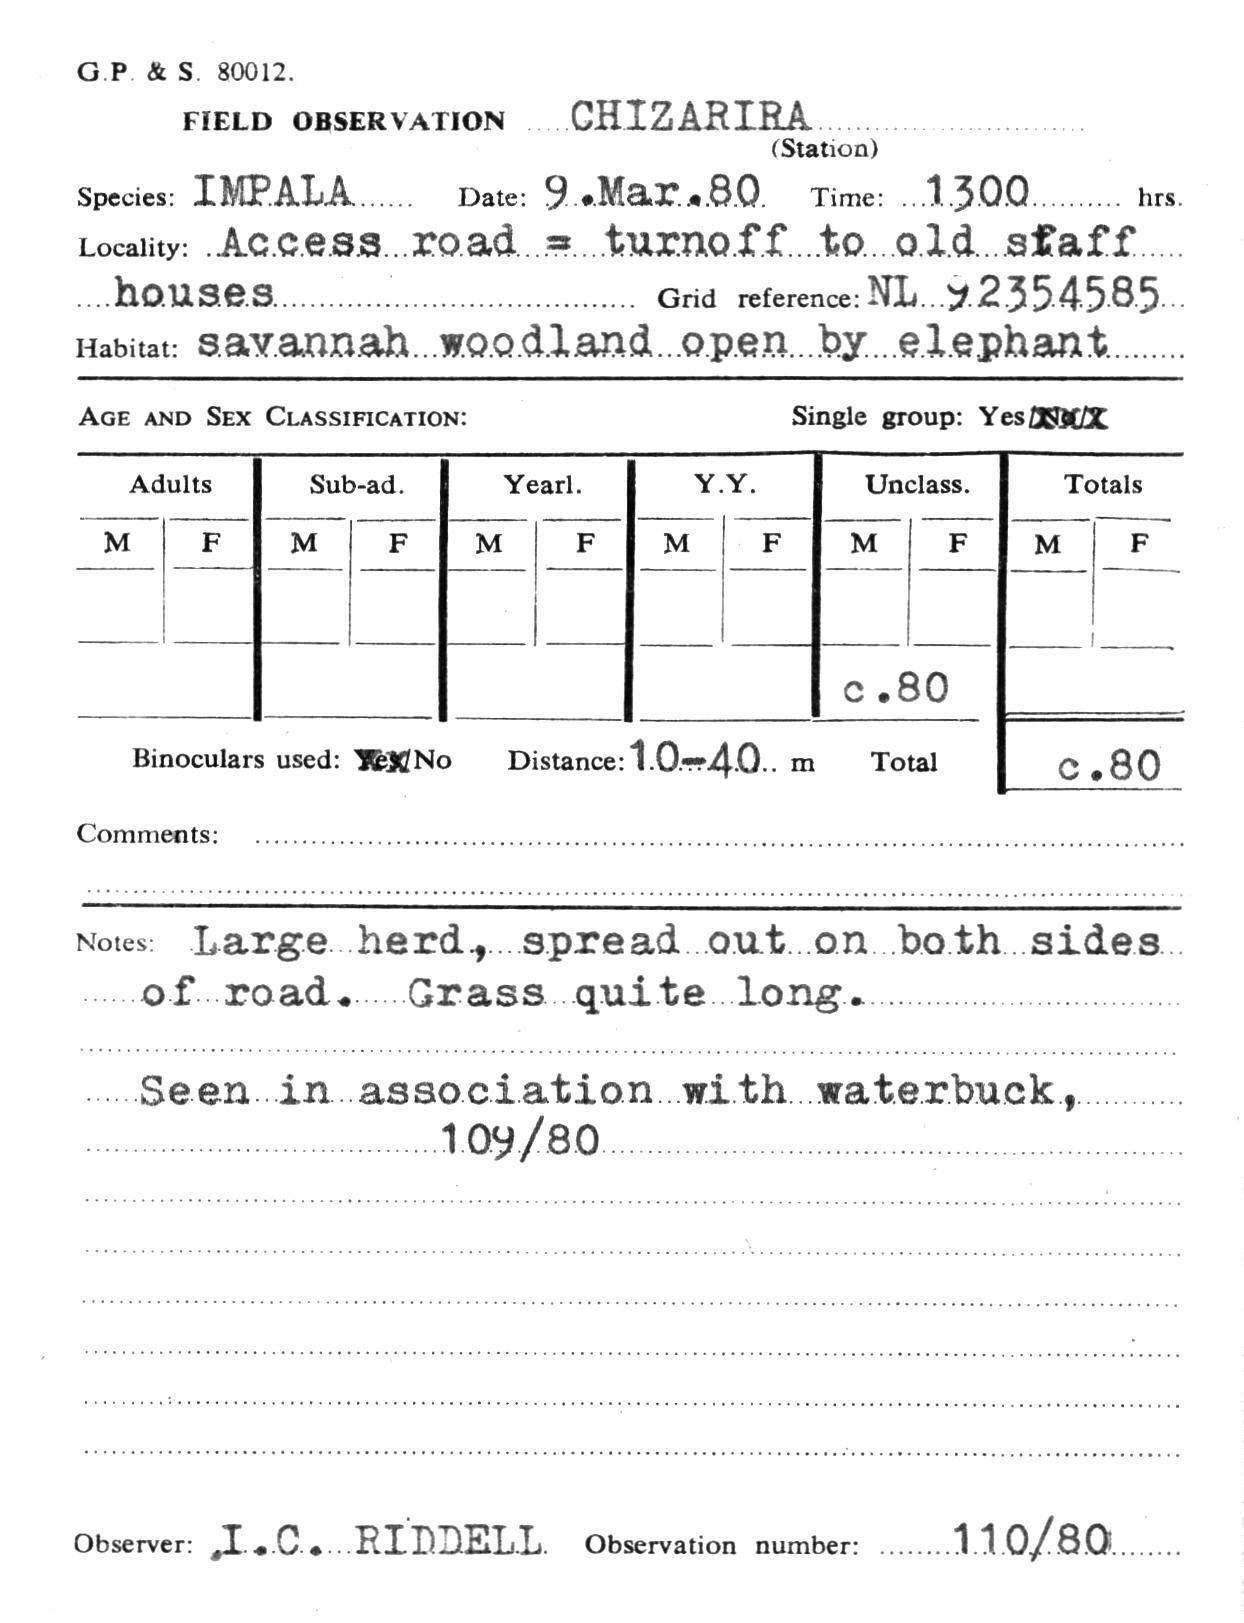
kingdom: Animalia
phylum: Chordata
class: Mammalia
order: Artiodactyla
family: Bovidae
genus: Aepyceros
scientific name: Aepyceros melampus
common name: Impala
